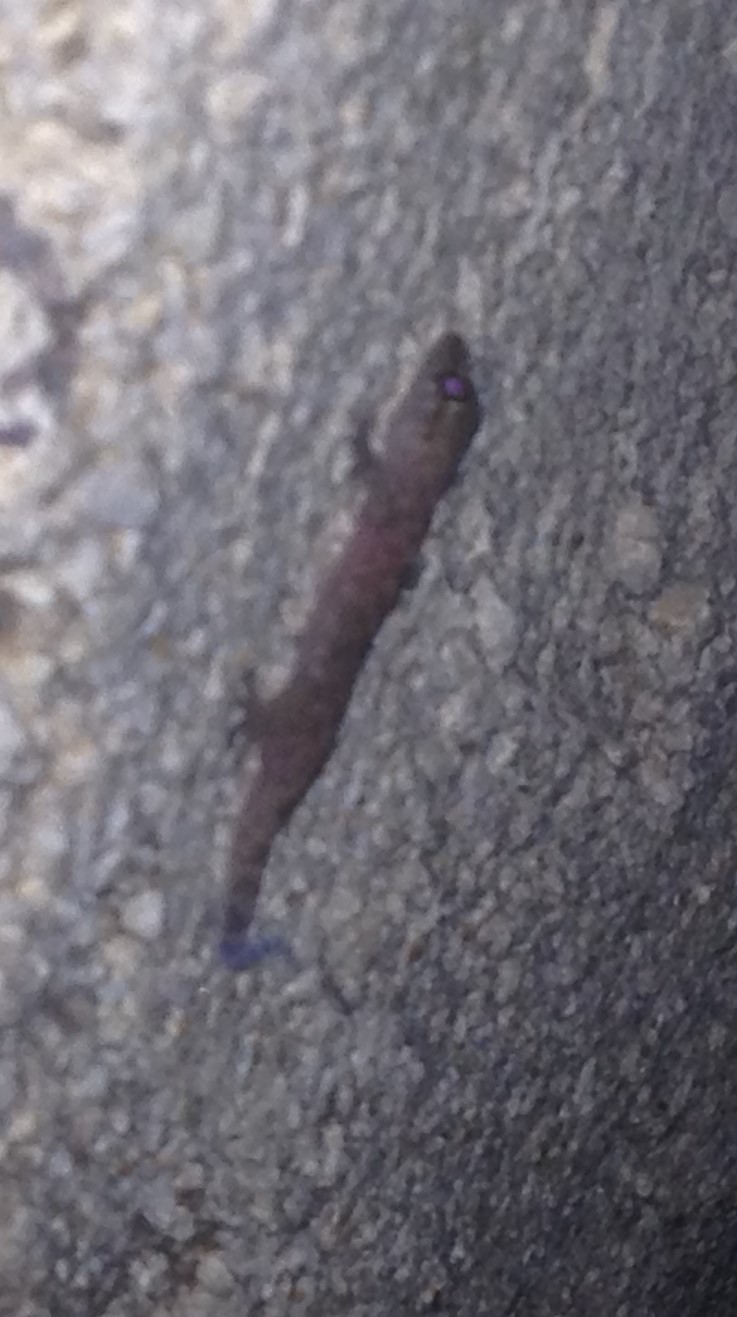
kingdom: Animalia
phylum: Chordata
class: Squamata
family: Gekkonidae
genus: Hemidactylus
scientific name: Hemidactylus turcicus
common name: Turkish gecko
